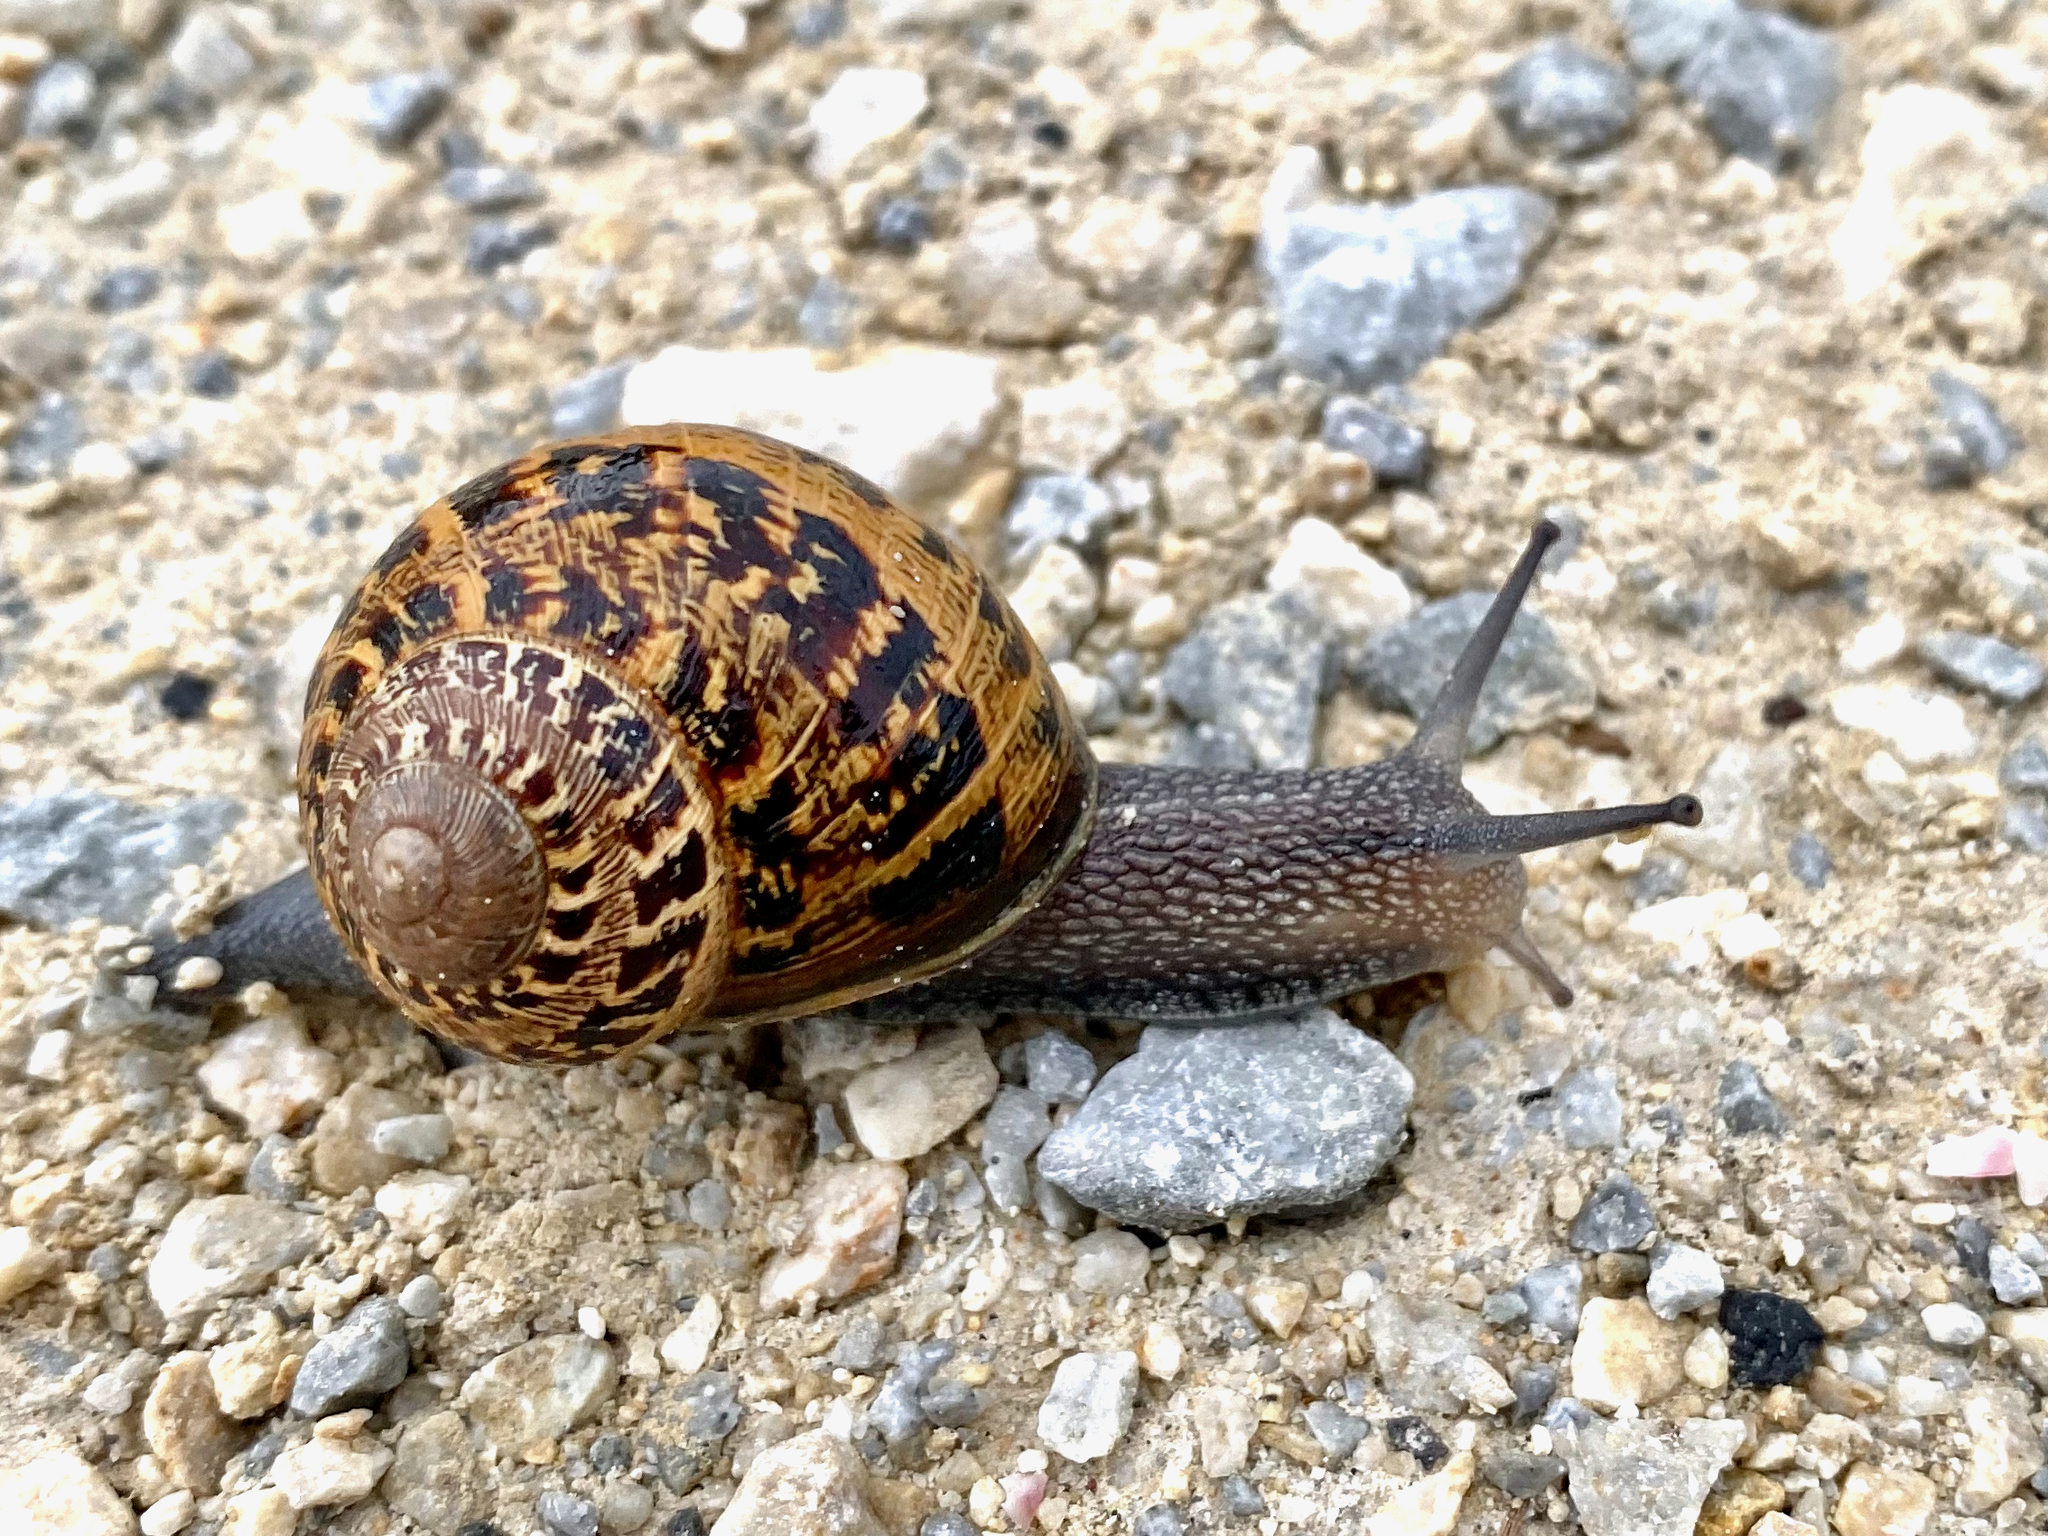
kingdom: Animalia
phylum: Mollusca
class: Gastropoda
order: Stylommatophora
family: Helicidae
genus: Cornu
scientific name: Cornu aspersum
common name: Brown garden snail
